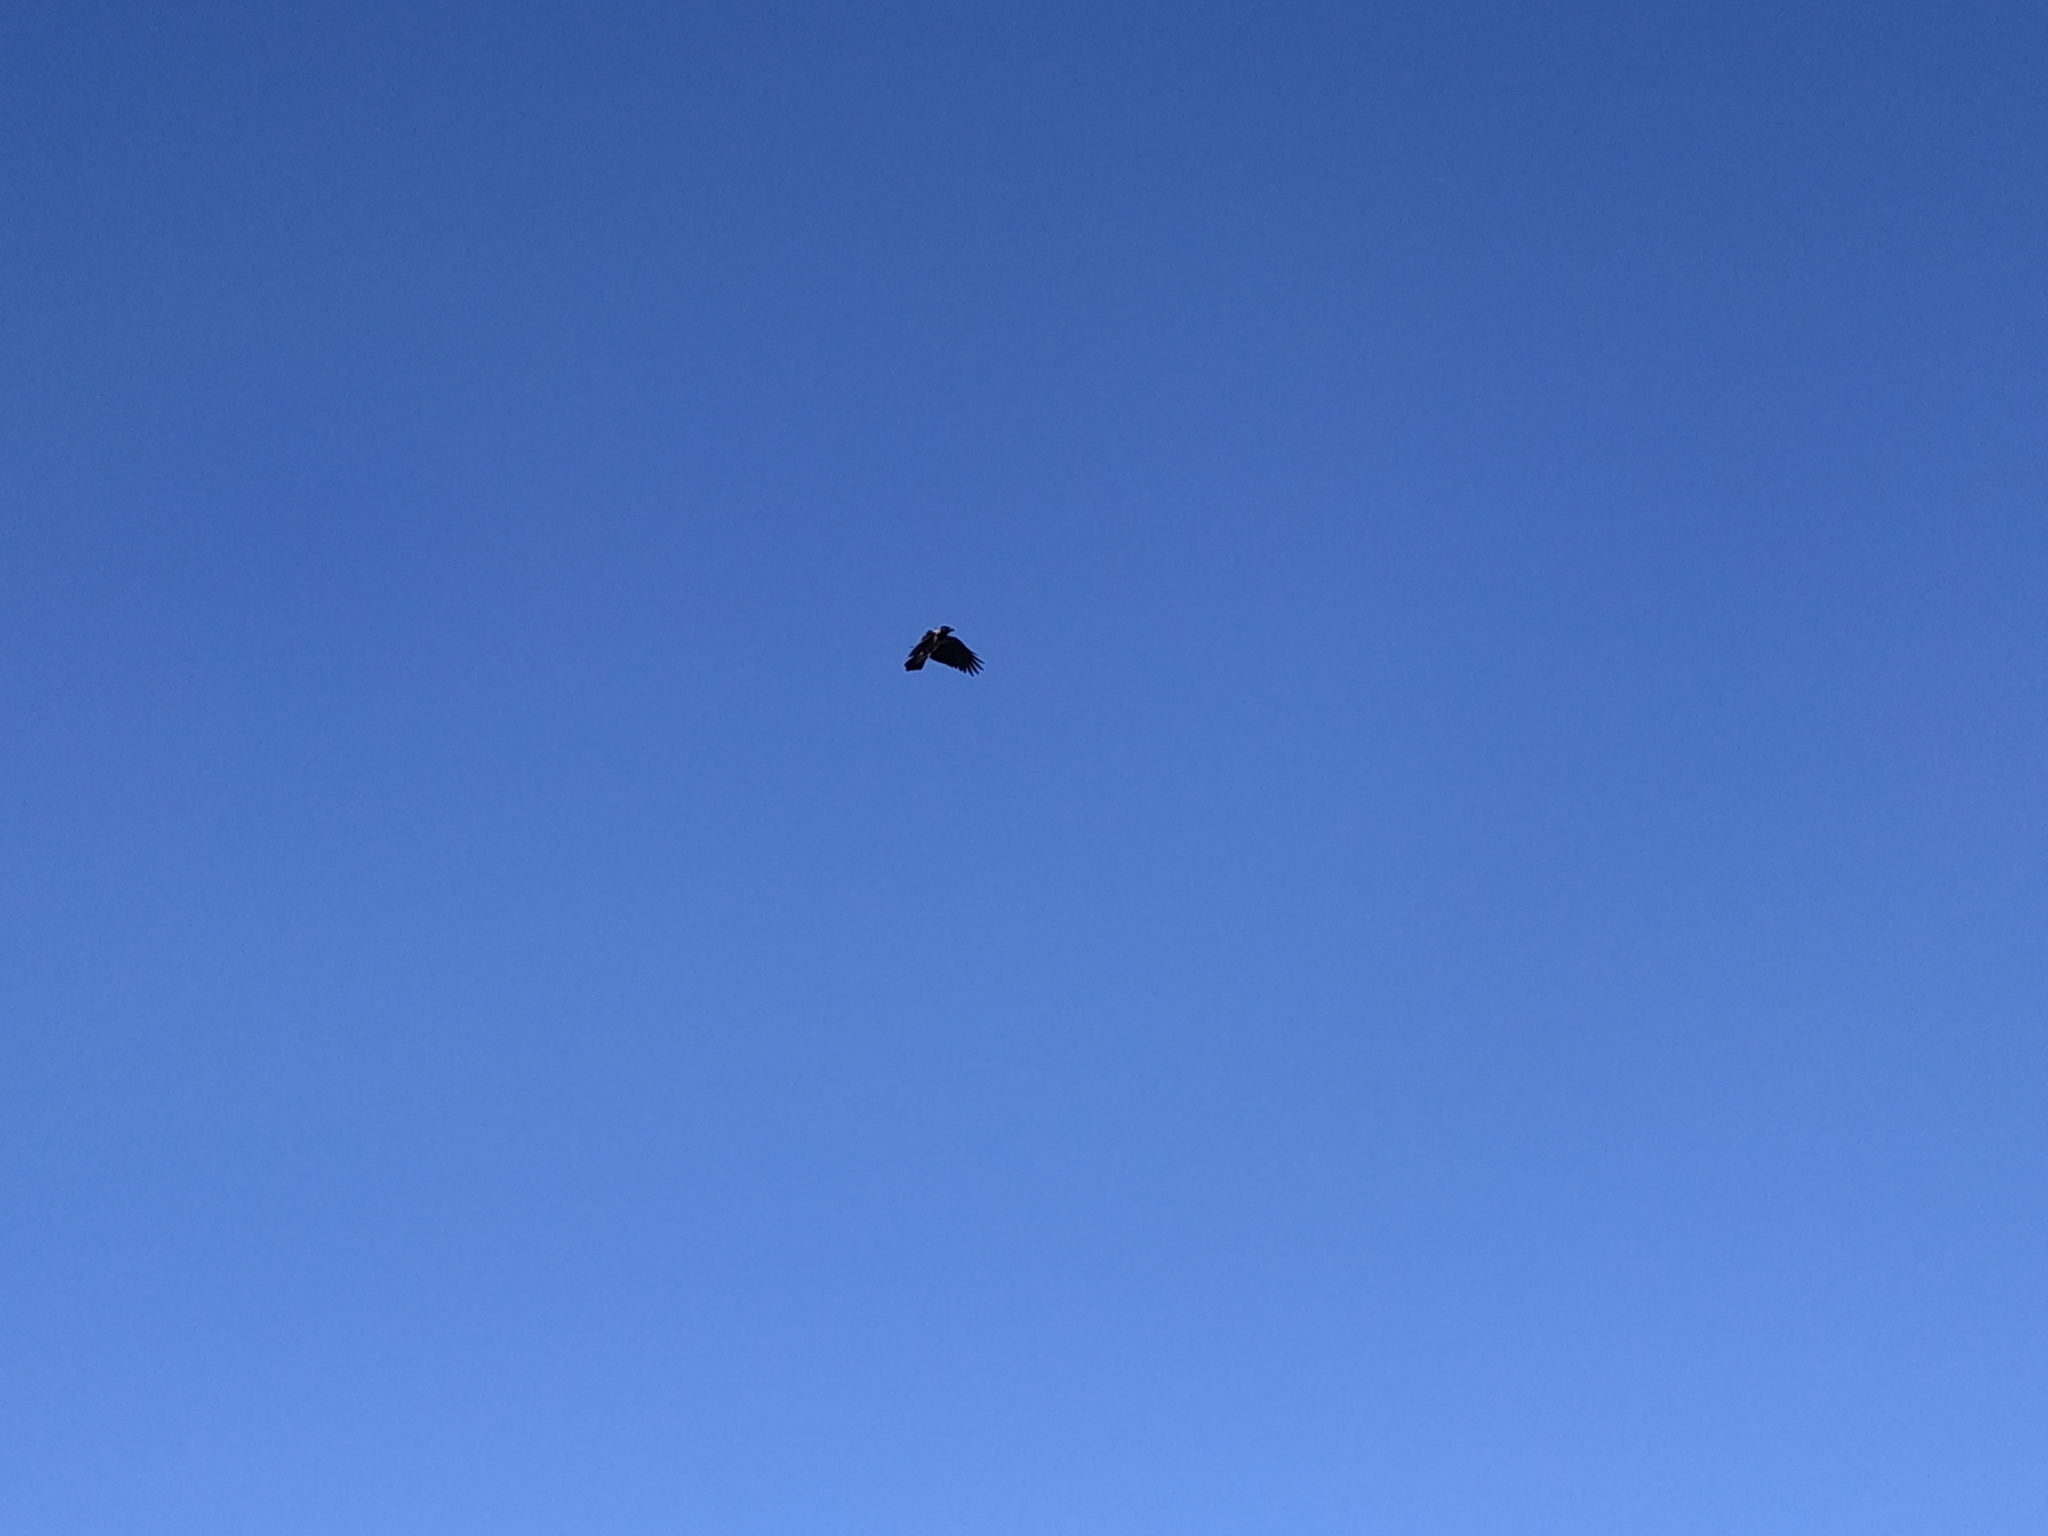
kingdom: Animalia
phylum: Chordata
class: Aves
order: Passeriformes
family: Corvidae
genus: Corvus
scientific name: Corvus cornix
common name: Hooded crow
